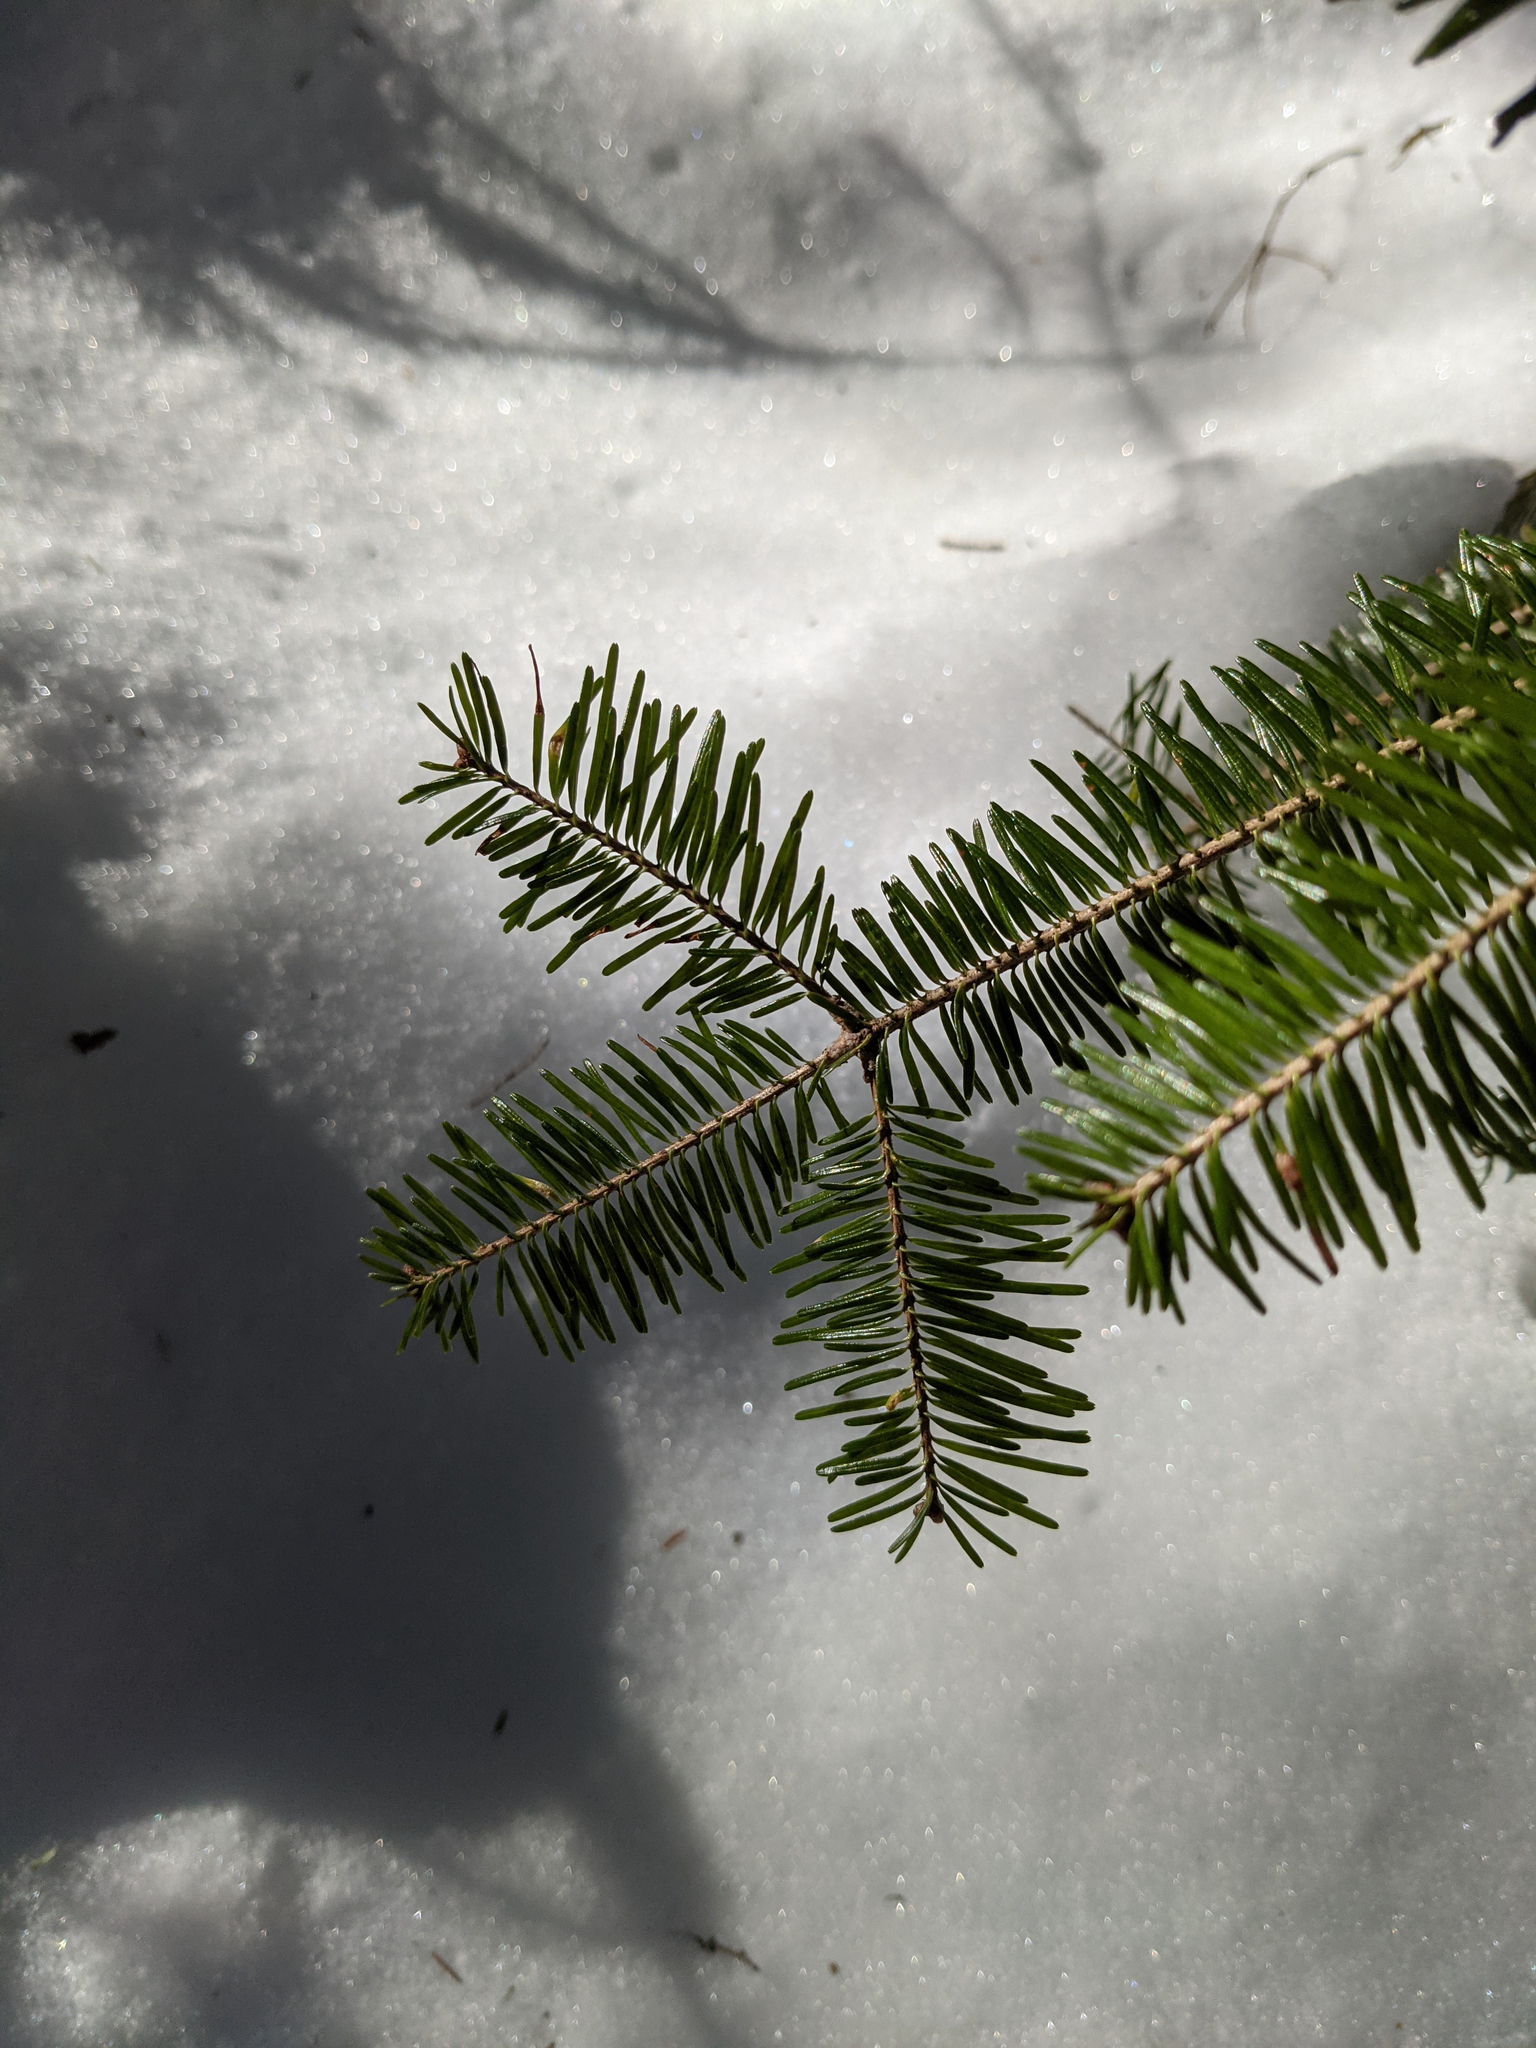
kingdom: Plantae
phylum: Tracheophyta
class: Pinopsida
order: Pinales
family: Pinaceae
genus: Abies
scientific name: Abies balsamea
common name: Balsam fir
